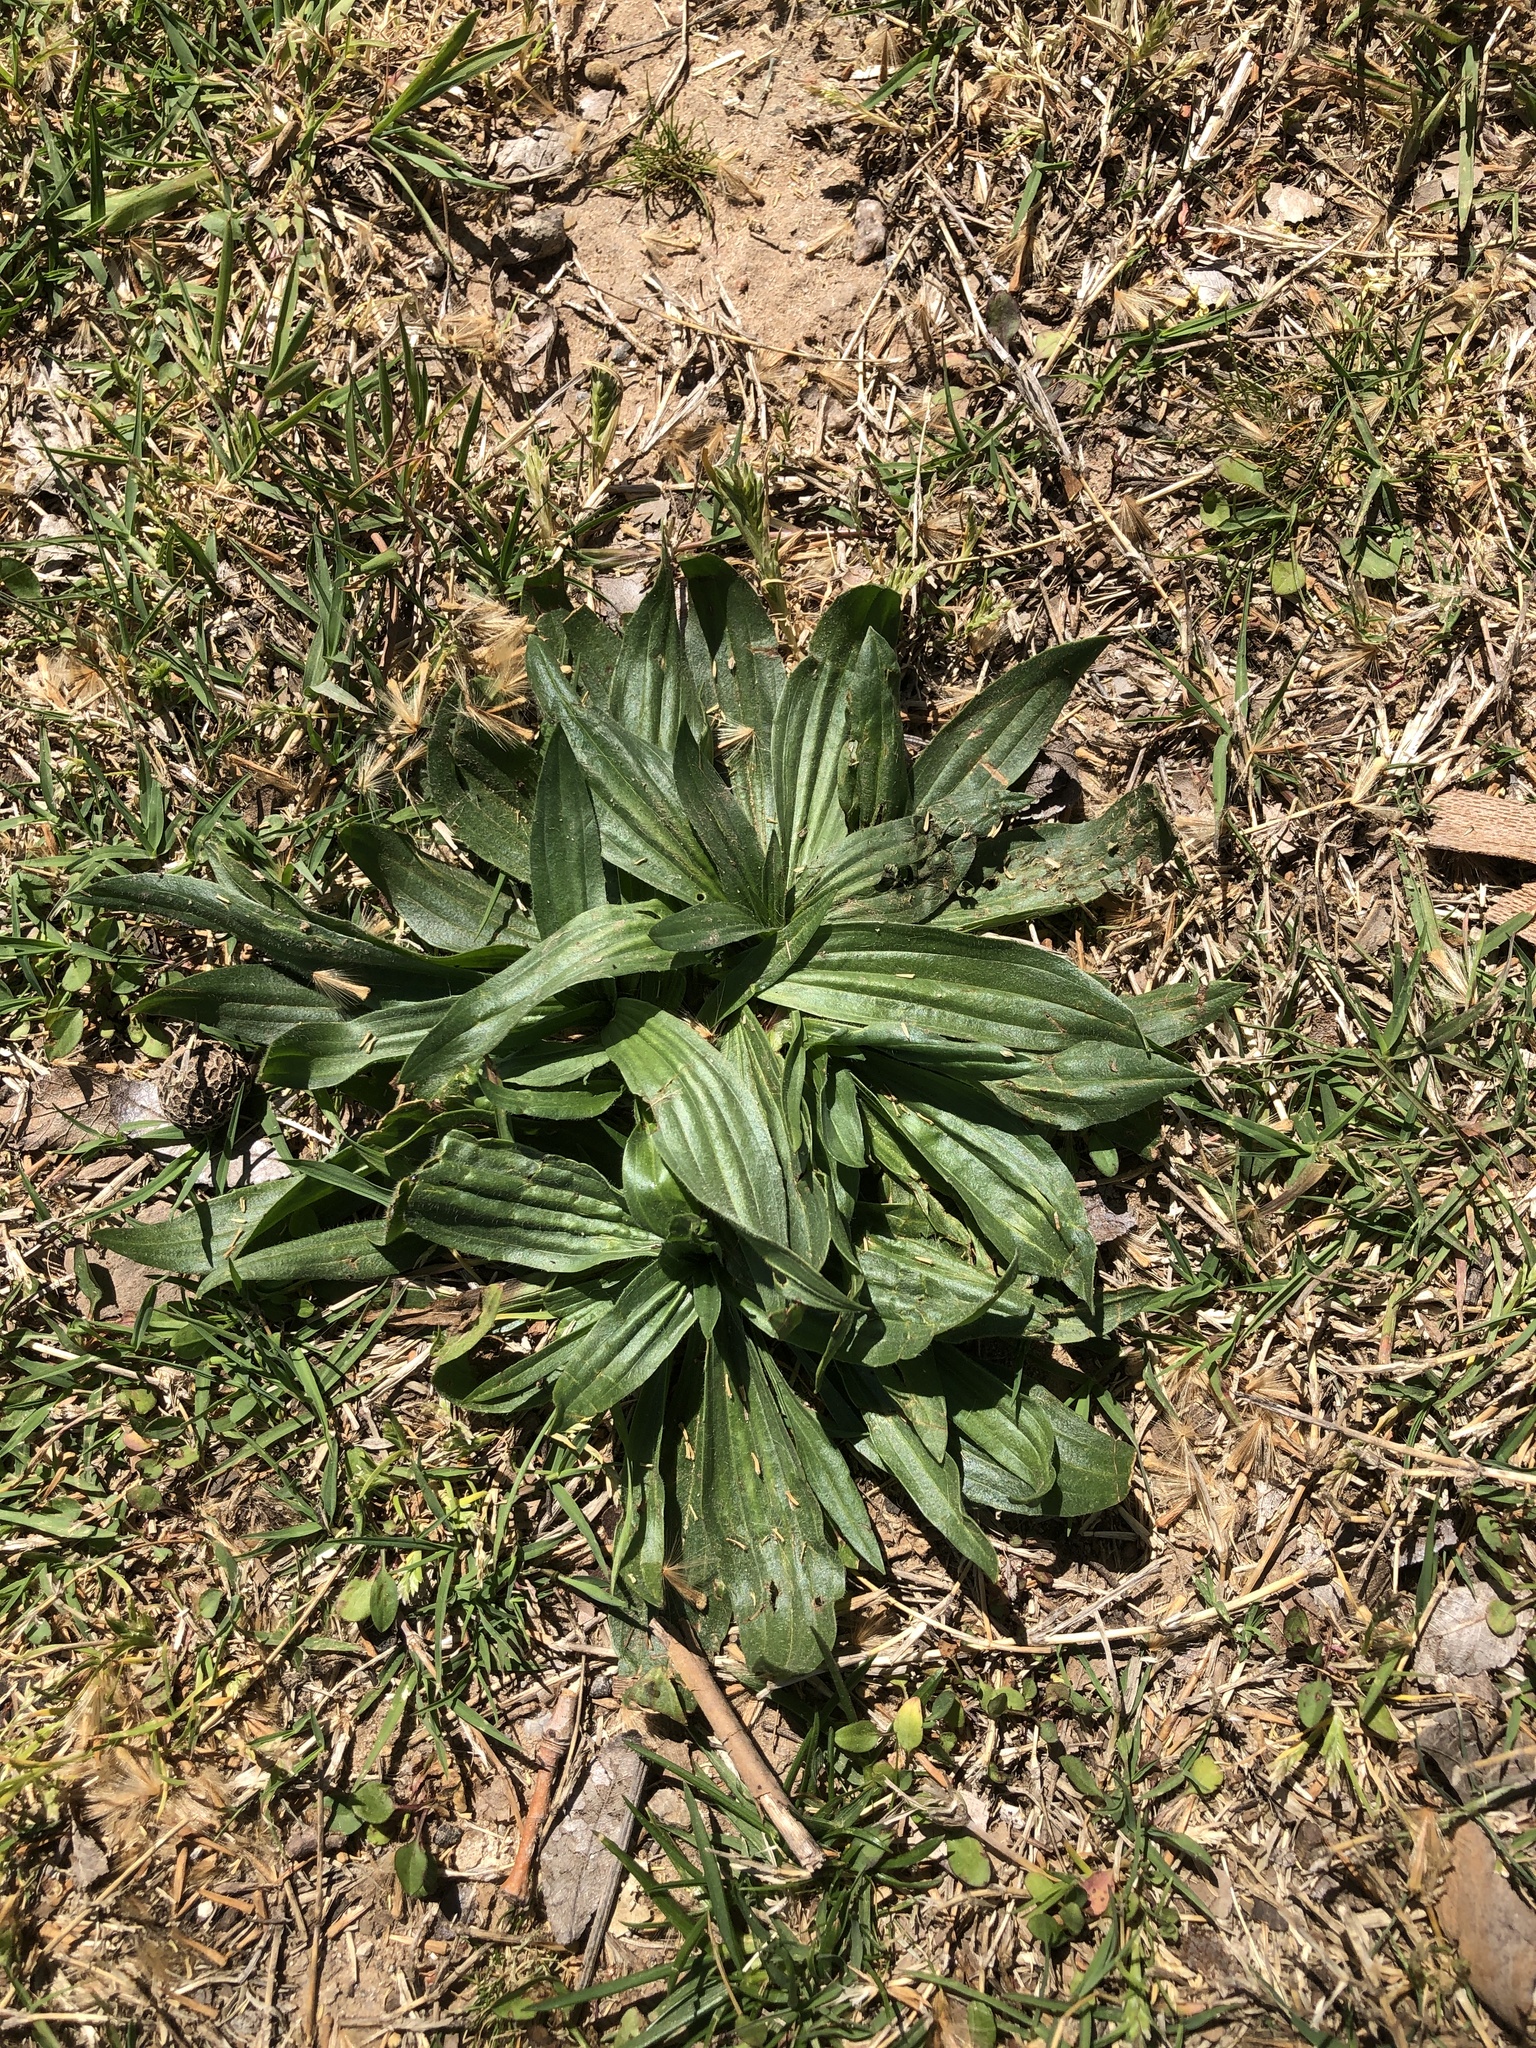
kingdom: Plantae
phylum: Tracheophyta
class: Magnoliopsida
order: Lamiales
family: Plantaginaceae
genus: Plantago
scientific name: Plantago lanceolata
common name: Ribwort plantain
